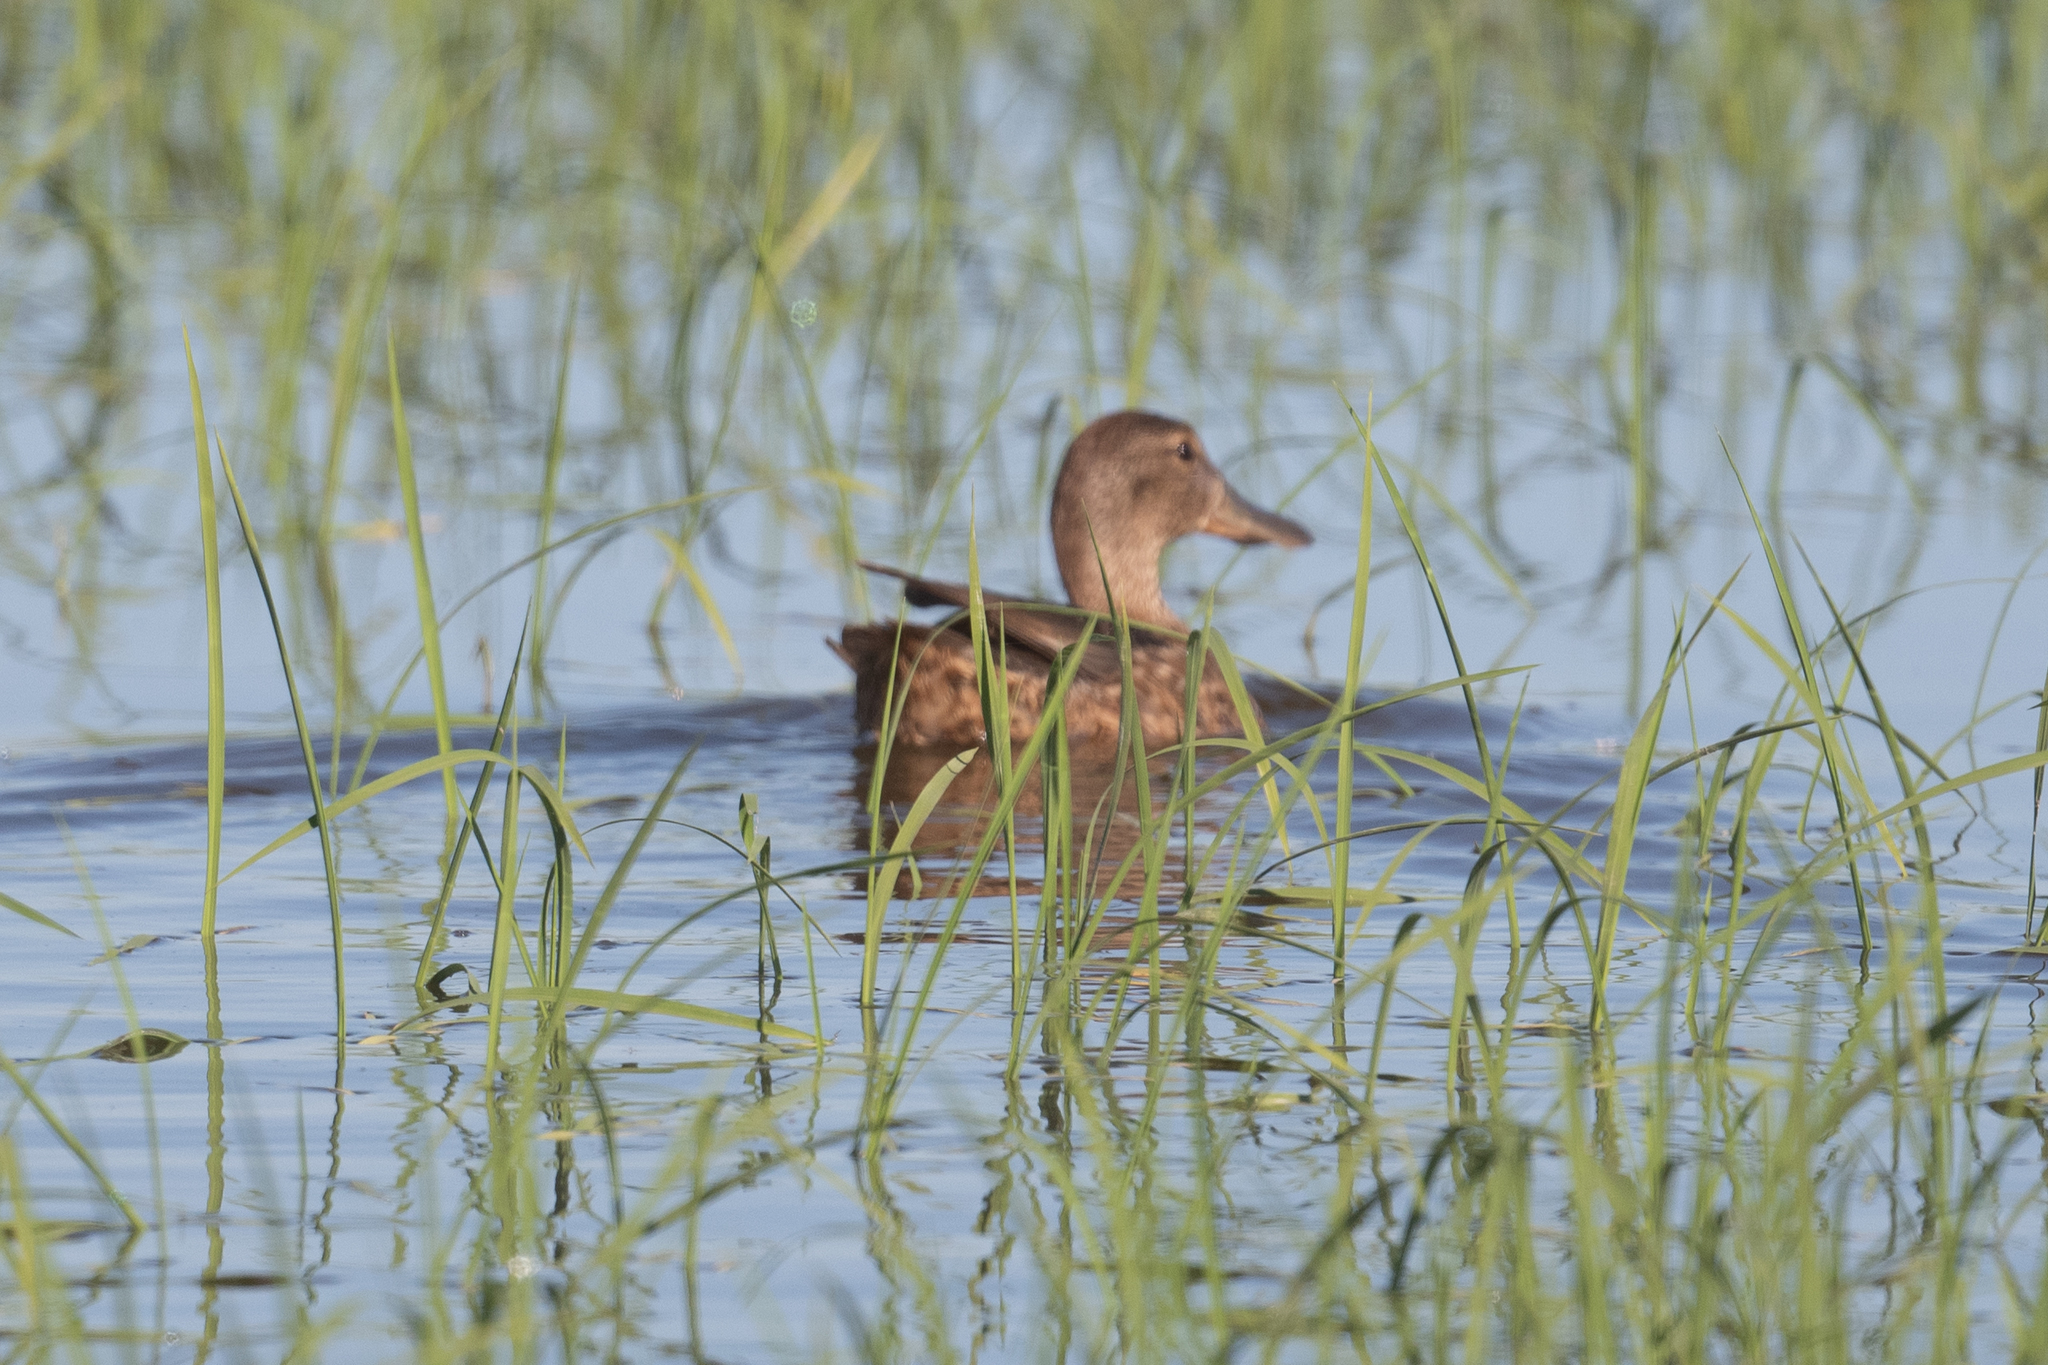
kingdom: Animalia
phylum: Chordata
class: Aves
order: Anseriformes
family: Anatidae
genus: Anas
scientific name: Anas platyrhynchos
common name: Mallard
